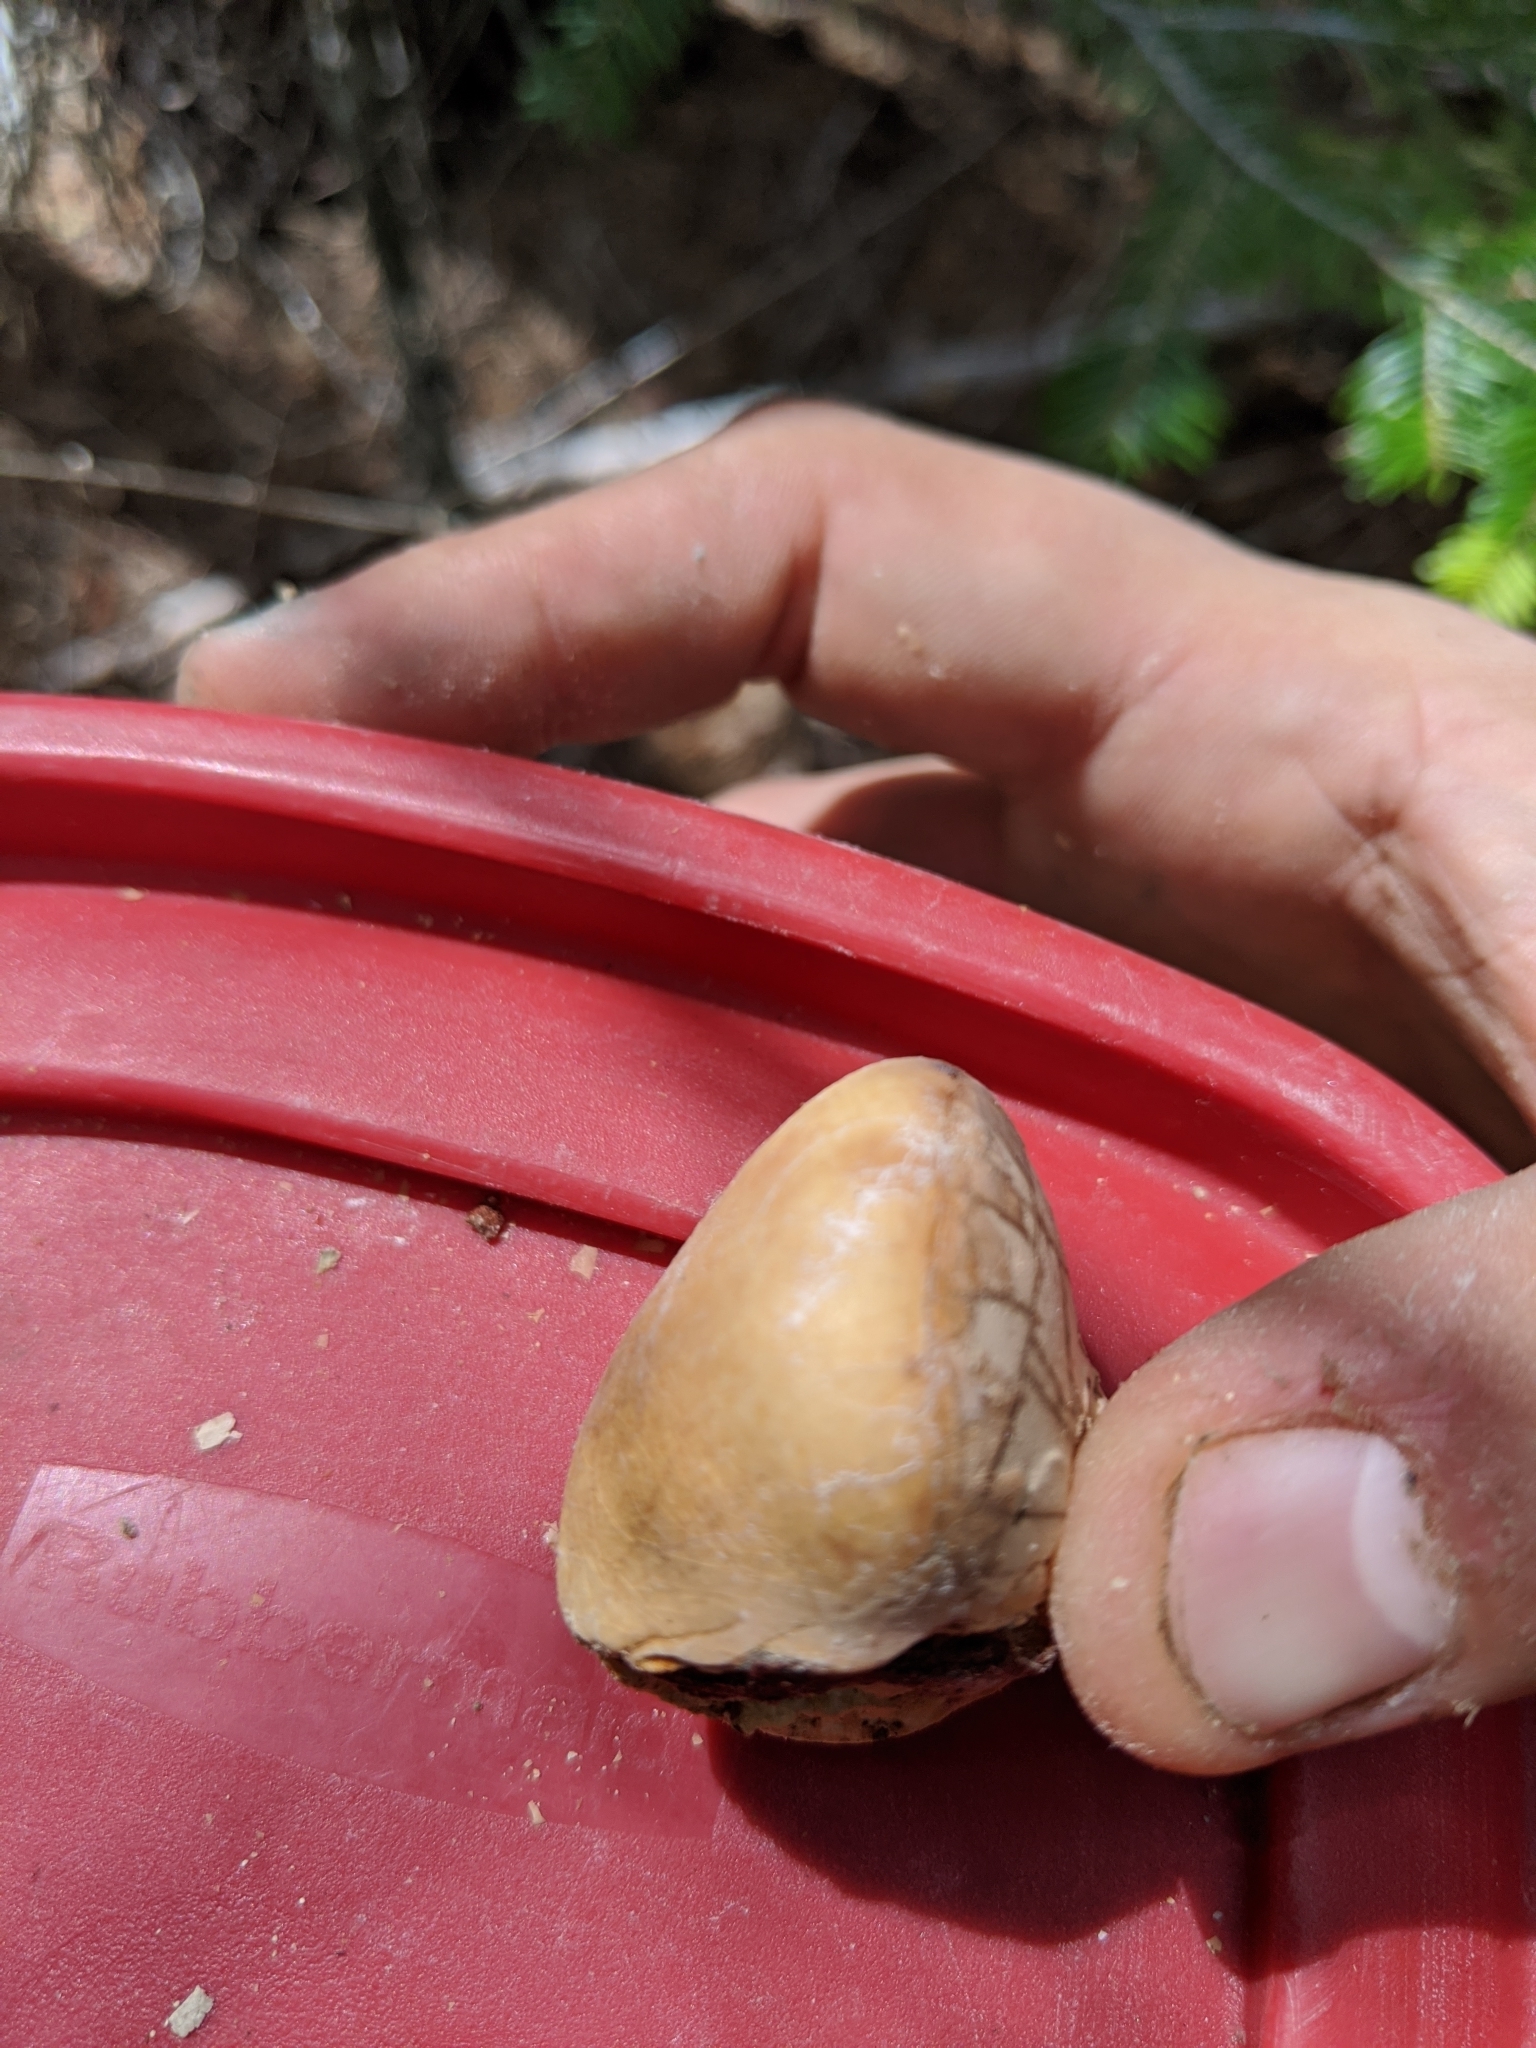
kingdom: Fungi
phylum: Basidiomycota
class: Agaricomycetes
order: Polyporales
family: Polyporaceae
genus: Cryptoporus
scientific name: Cryptoporus volvatus
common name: Veiled polypore
